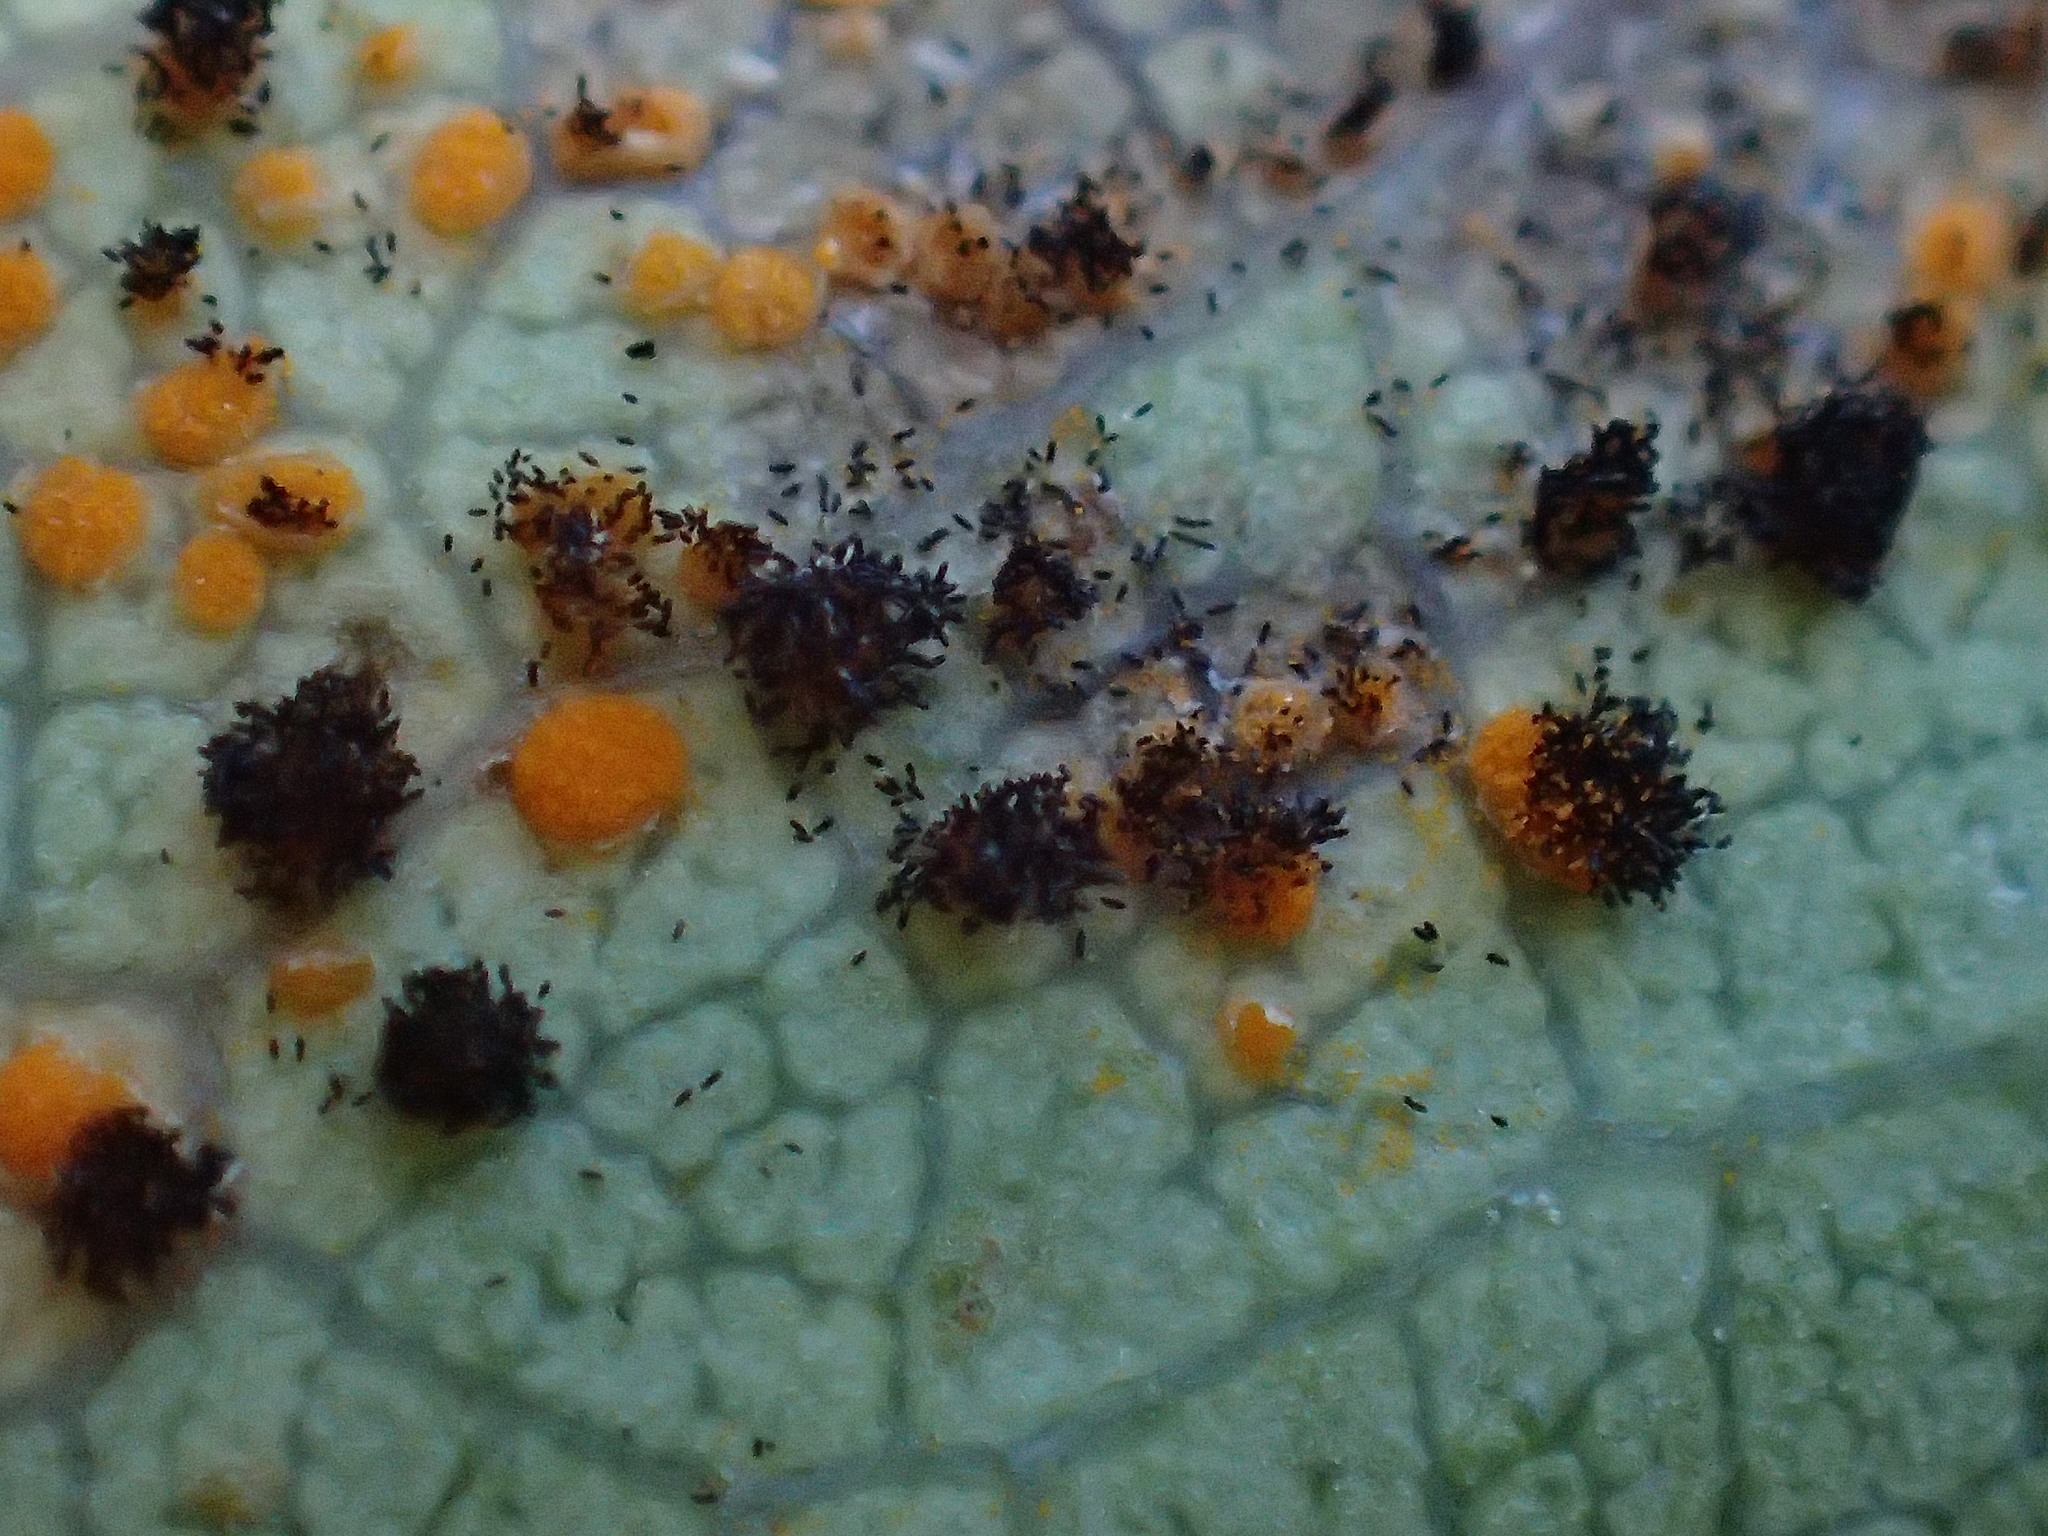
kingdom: Fungi
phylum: Basidiomycota
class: Pucciniomycetes
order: Pucciniales
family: Phragmidiaceae
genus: Phragmidium
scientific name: Phragmidium violaceum
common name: Violet bramble rust
